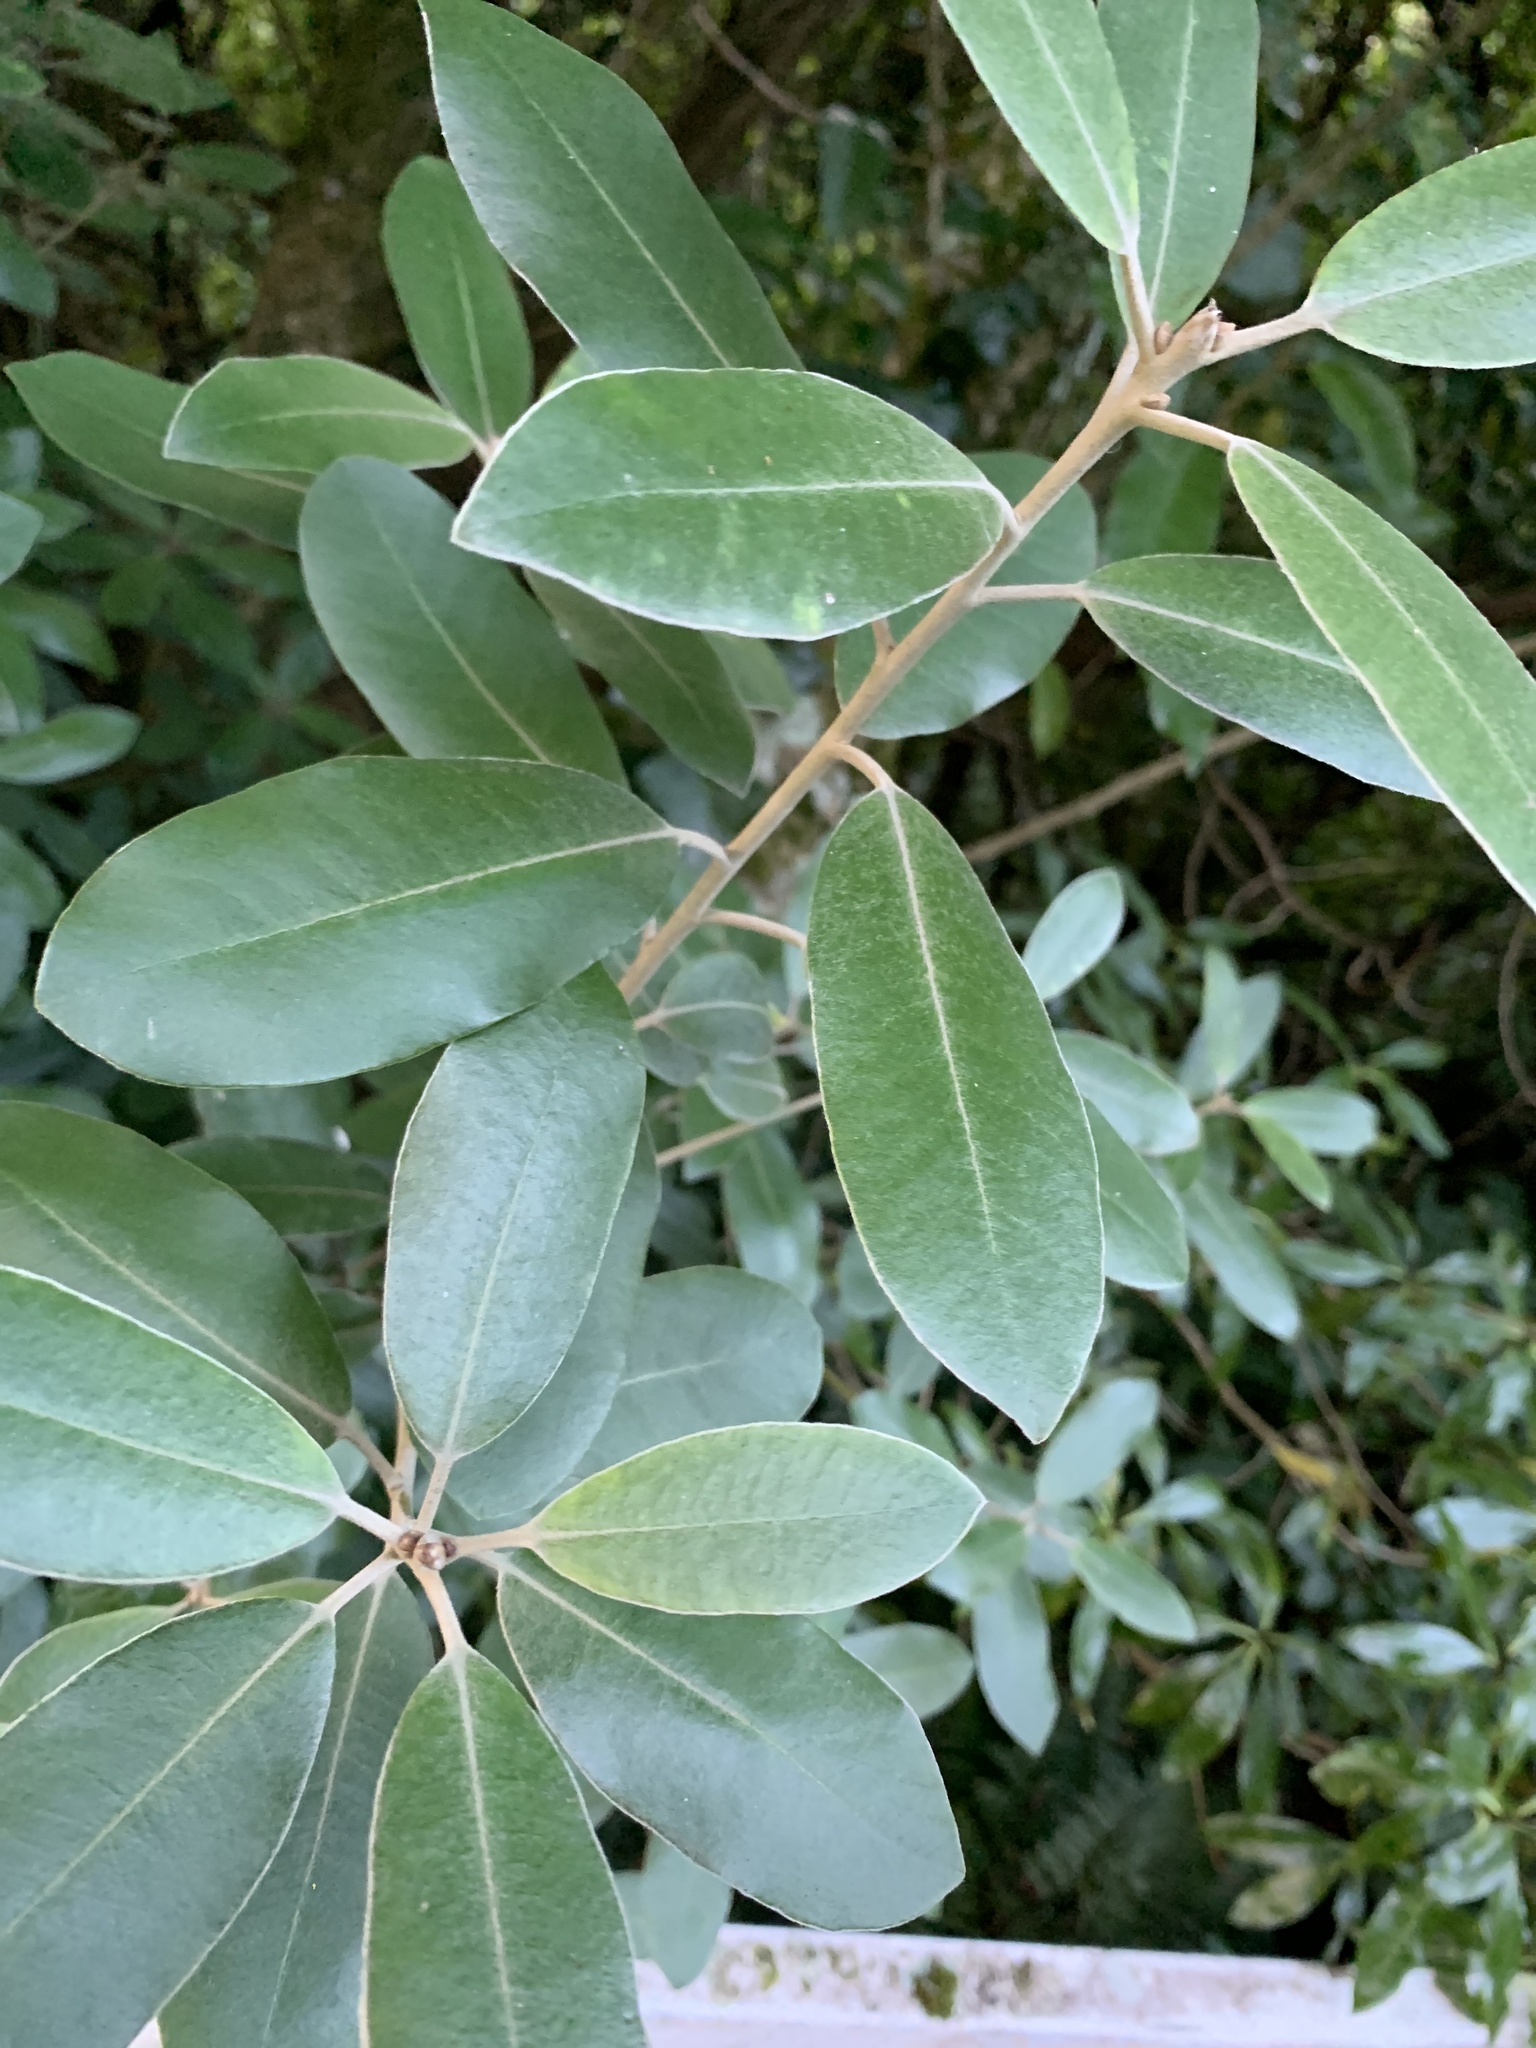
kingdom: Plantae
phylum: Tracheophyta
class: Magnoliopsida
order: Apiales
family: Pittosporaceae
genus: Pittosporum
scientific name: Pittosporum ralphii
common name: Ralph's desertwillow
